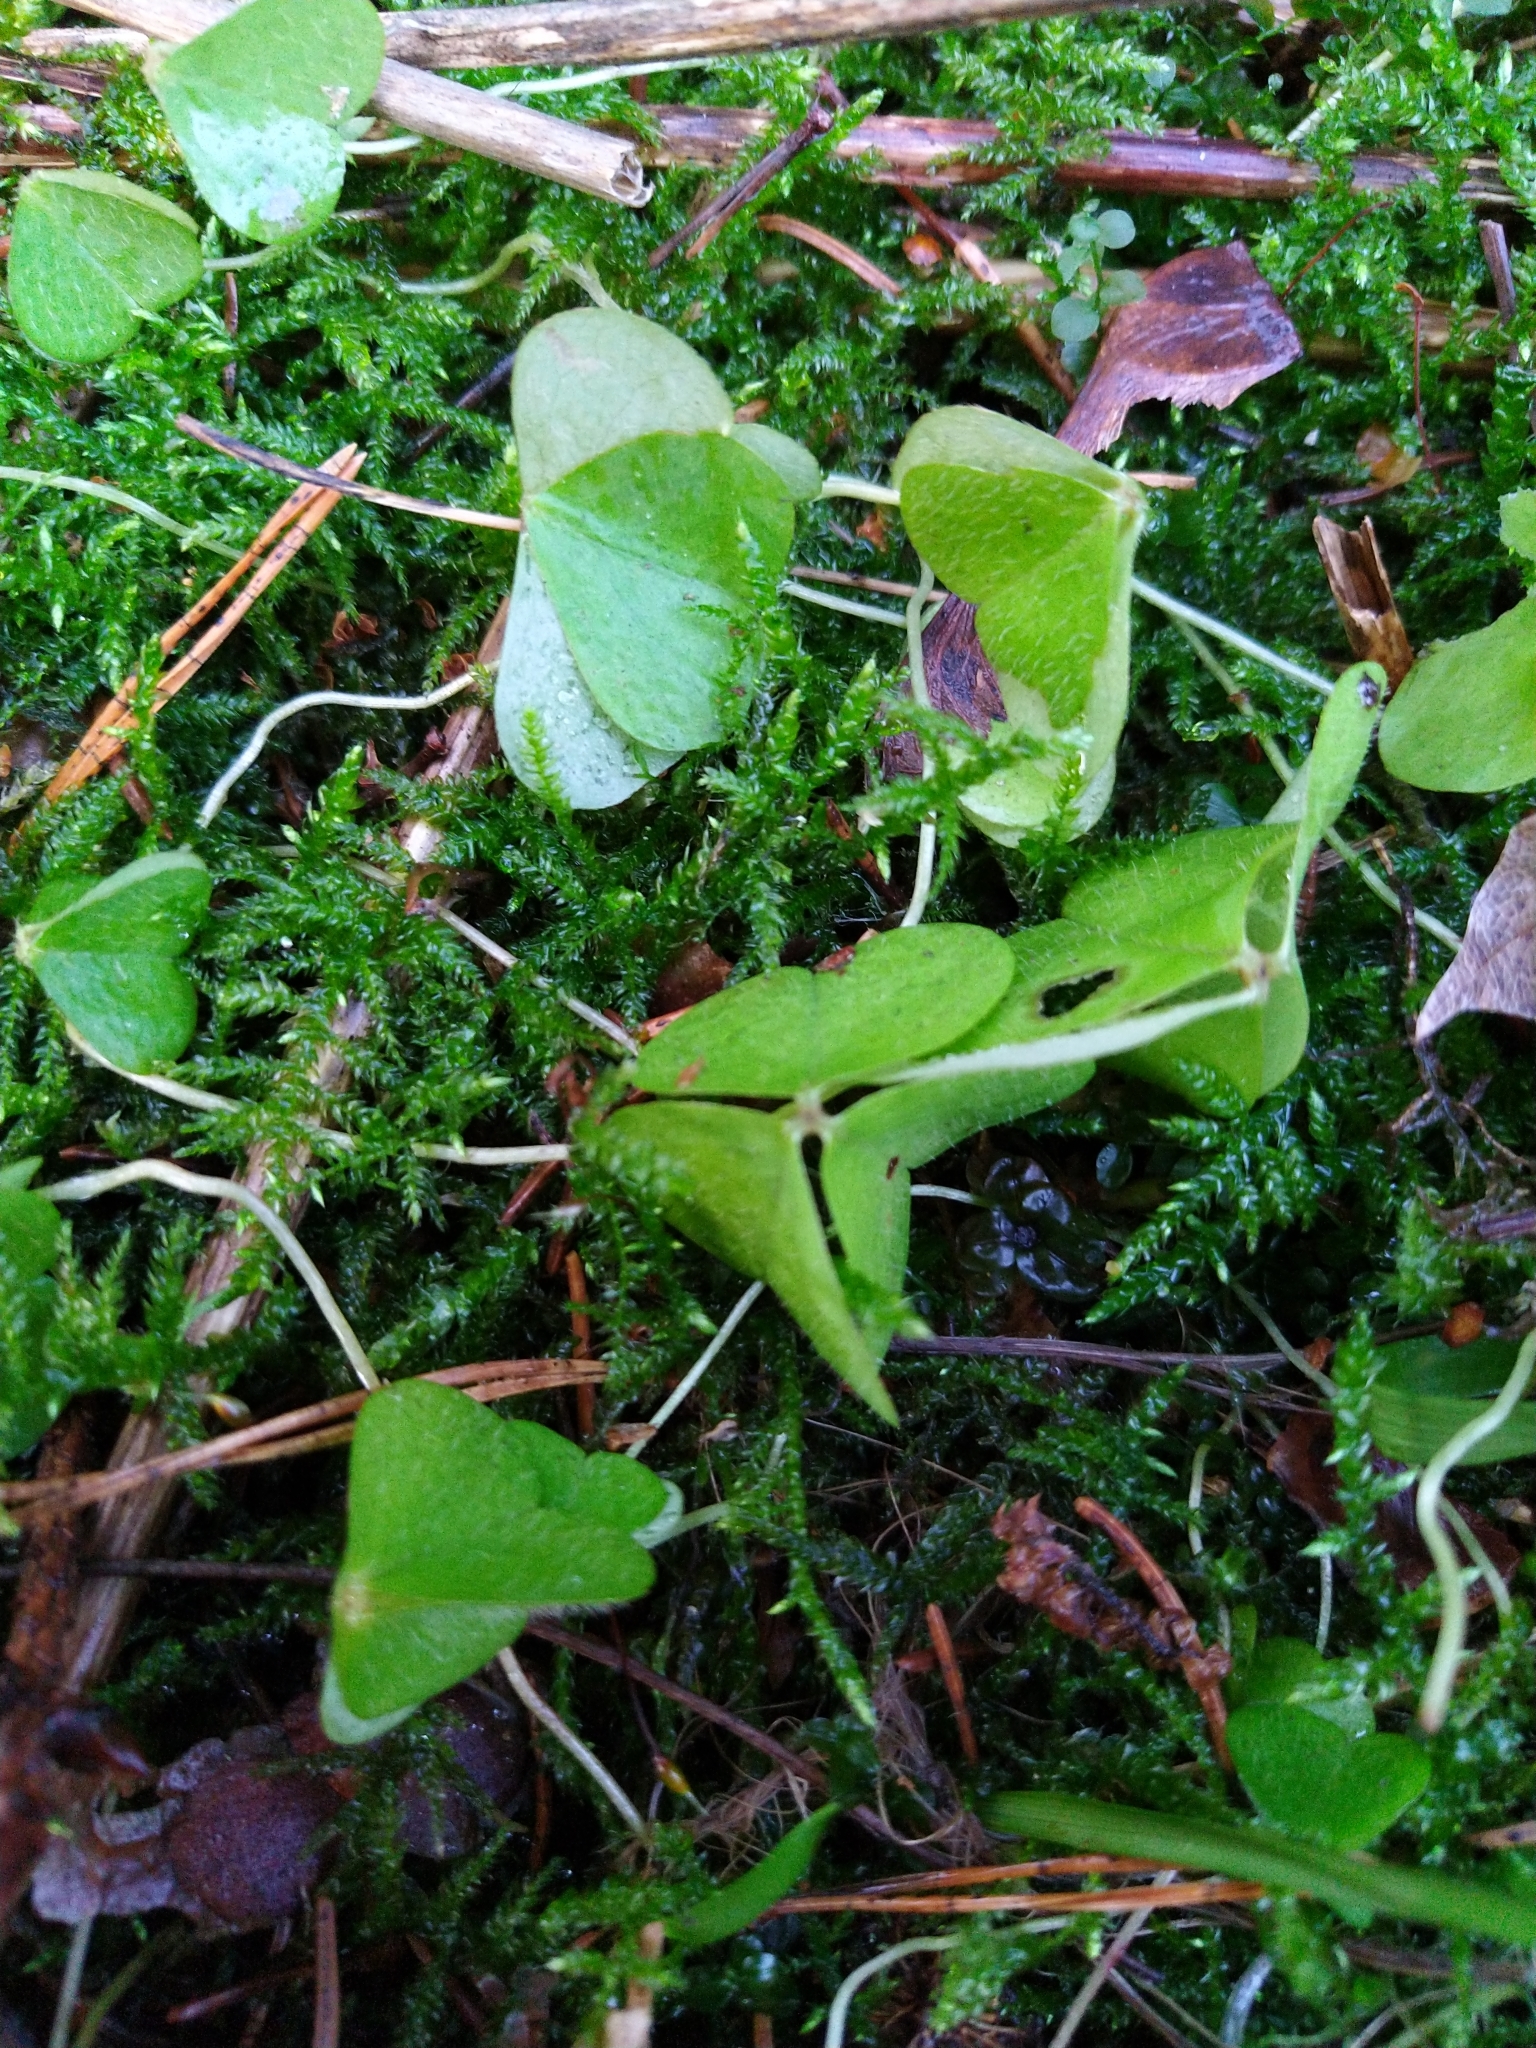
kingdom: Plantae
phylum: Tracheophyta
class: Magnoliopsida
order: Oxalidales
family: Oxalidaceae
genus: Oxalis
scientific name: Oxalis acetosella
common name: Wood-sorrel
